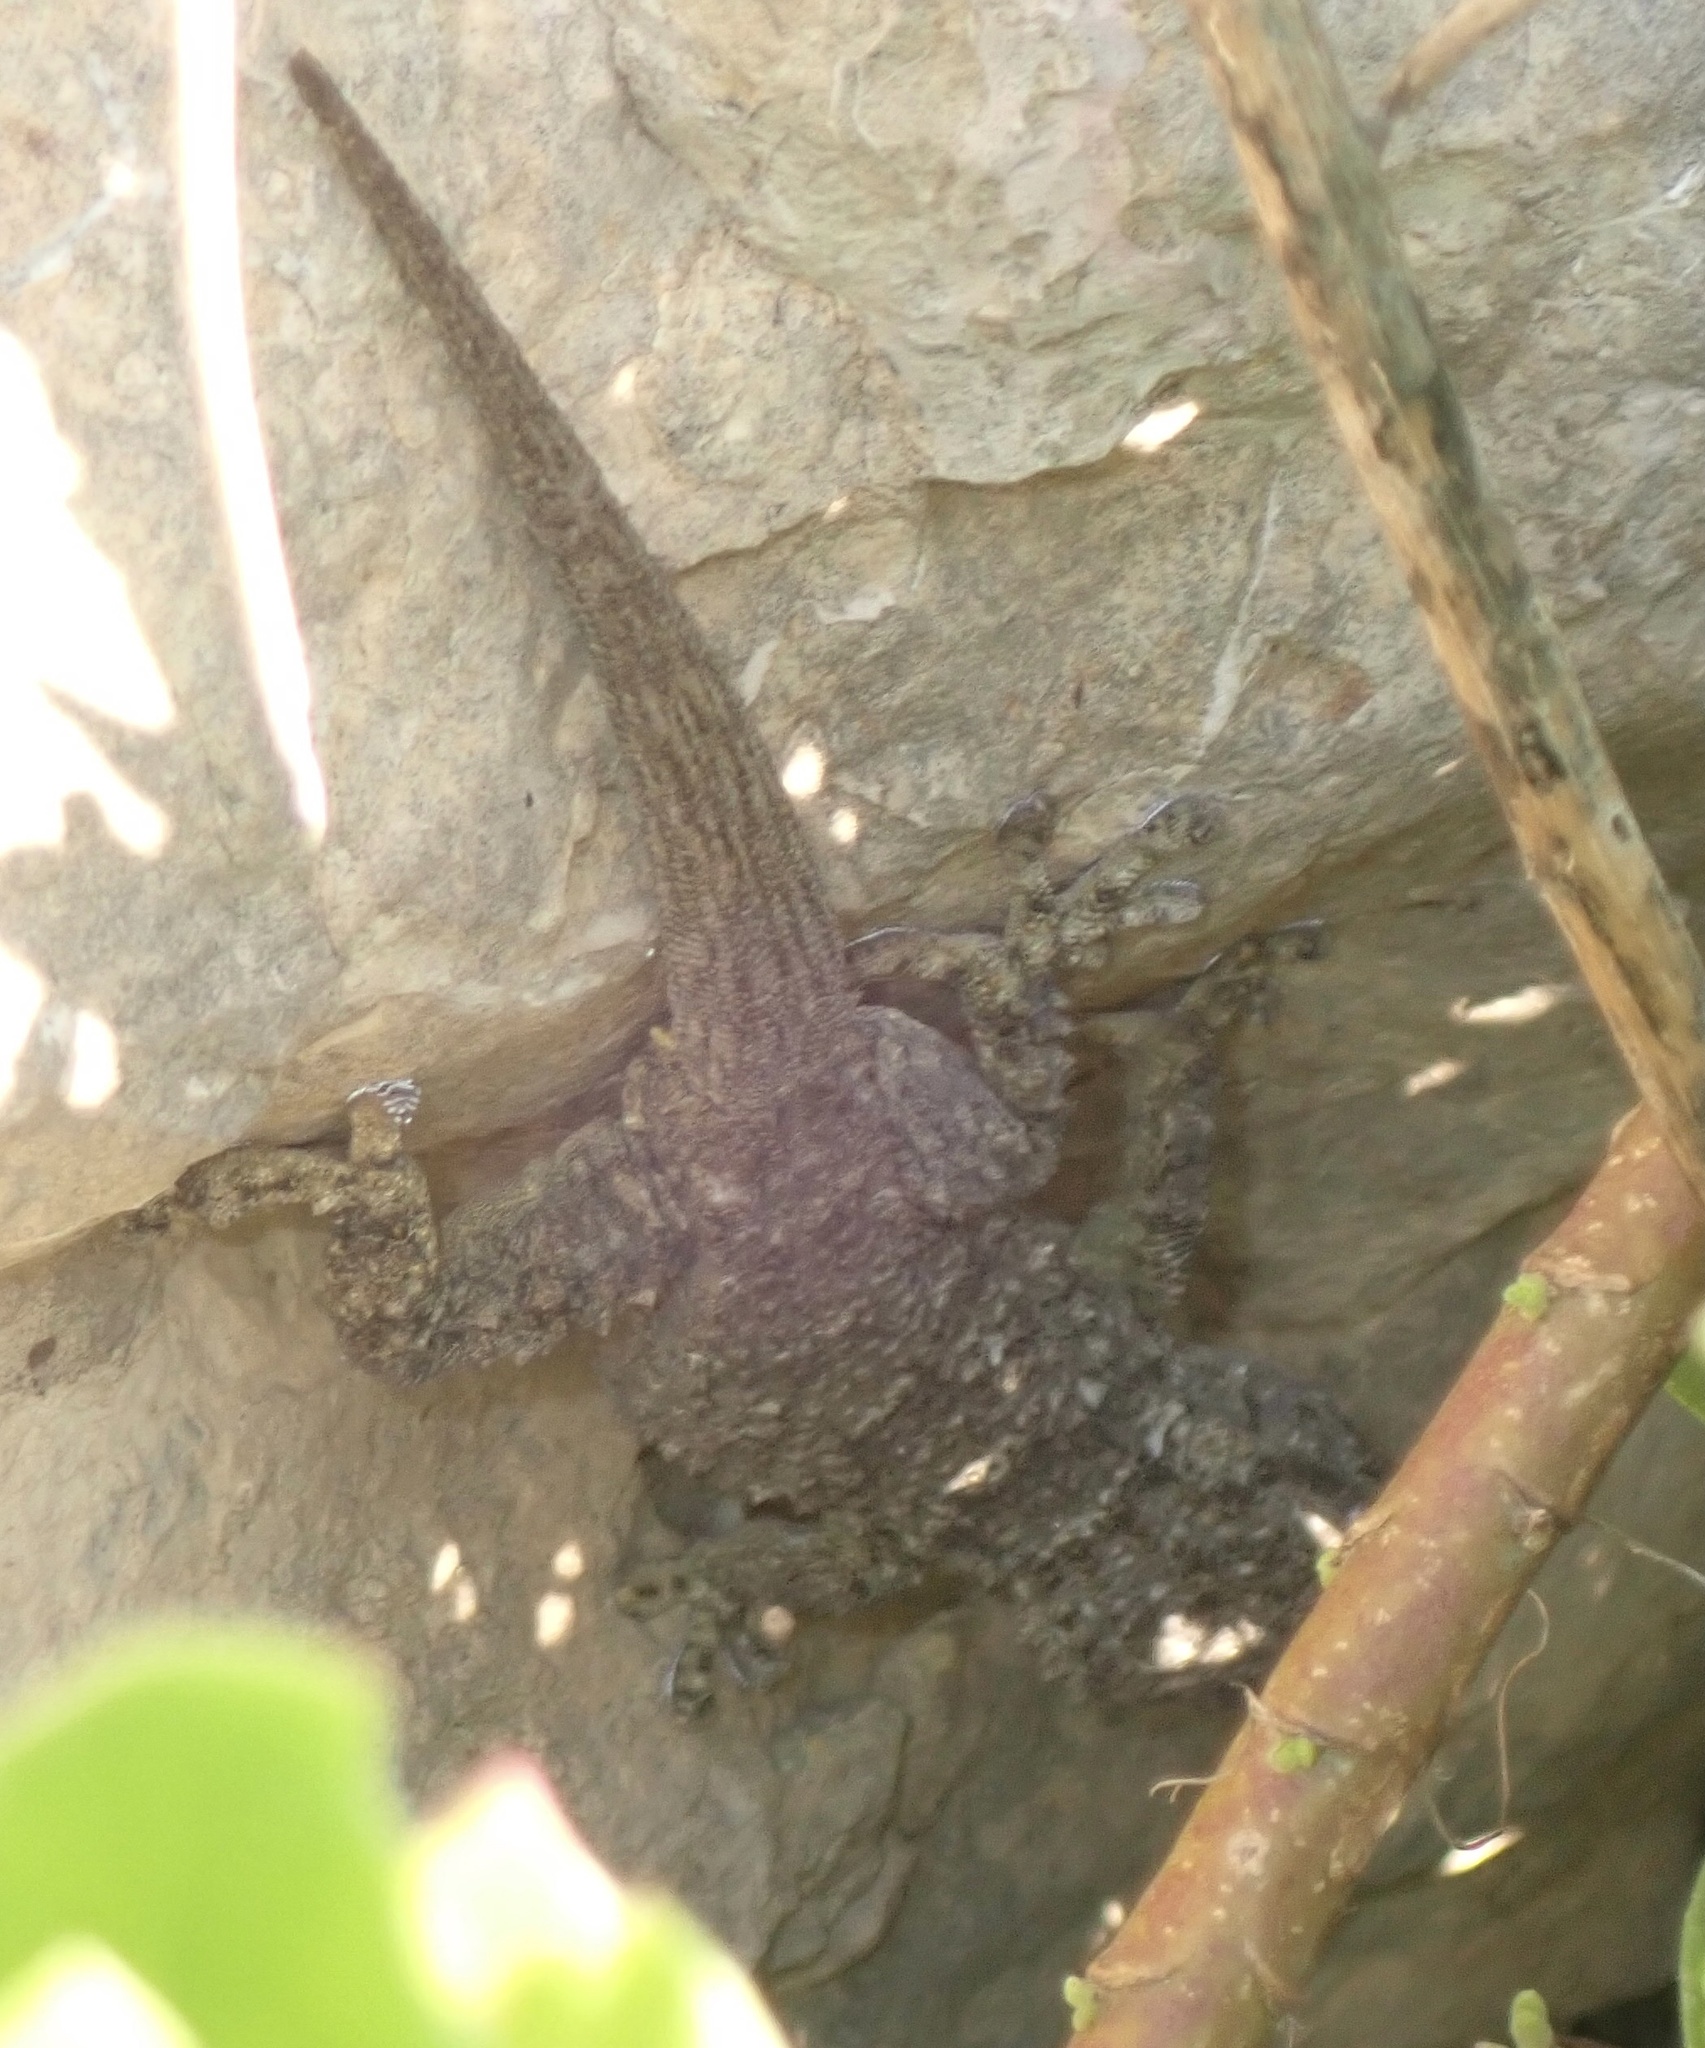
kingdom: Animalia
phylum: Chordata
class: Squamata
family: Phyllodactylidae
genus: Tarentola
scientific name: Tarentola mauritanica
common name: Moorish gecko
